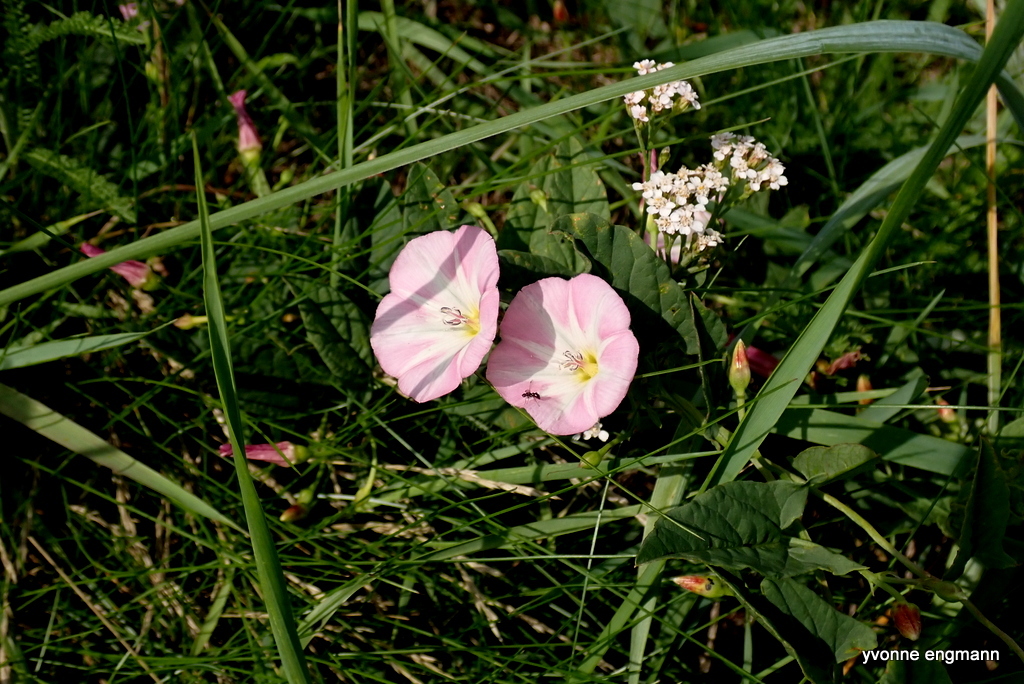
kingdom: Plantae
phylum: Tracheophyta
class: Magnoliopsida
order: Solanales
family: Convolvulaceae
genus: Convolvulus
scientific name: Convolvulus arvensis
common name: Field bindweed
